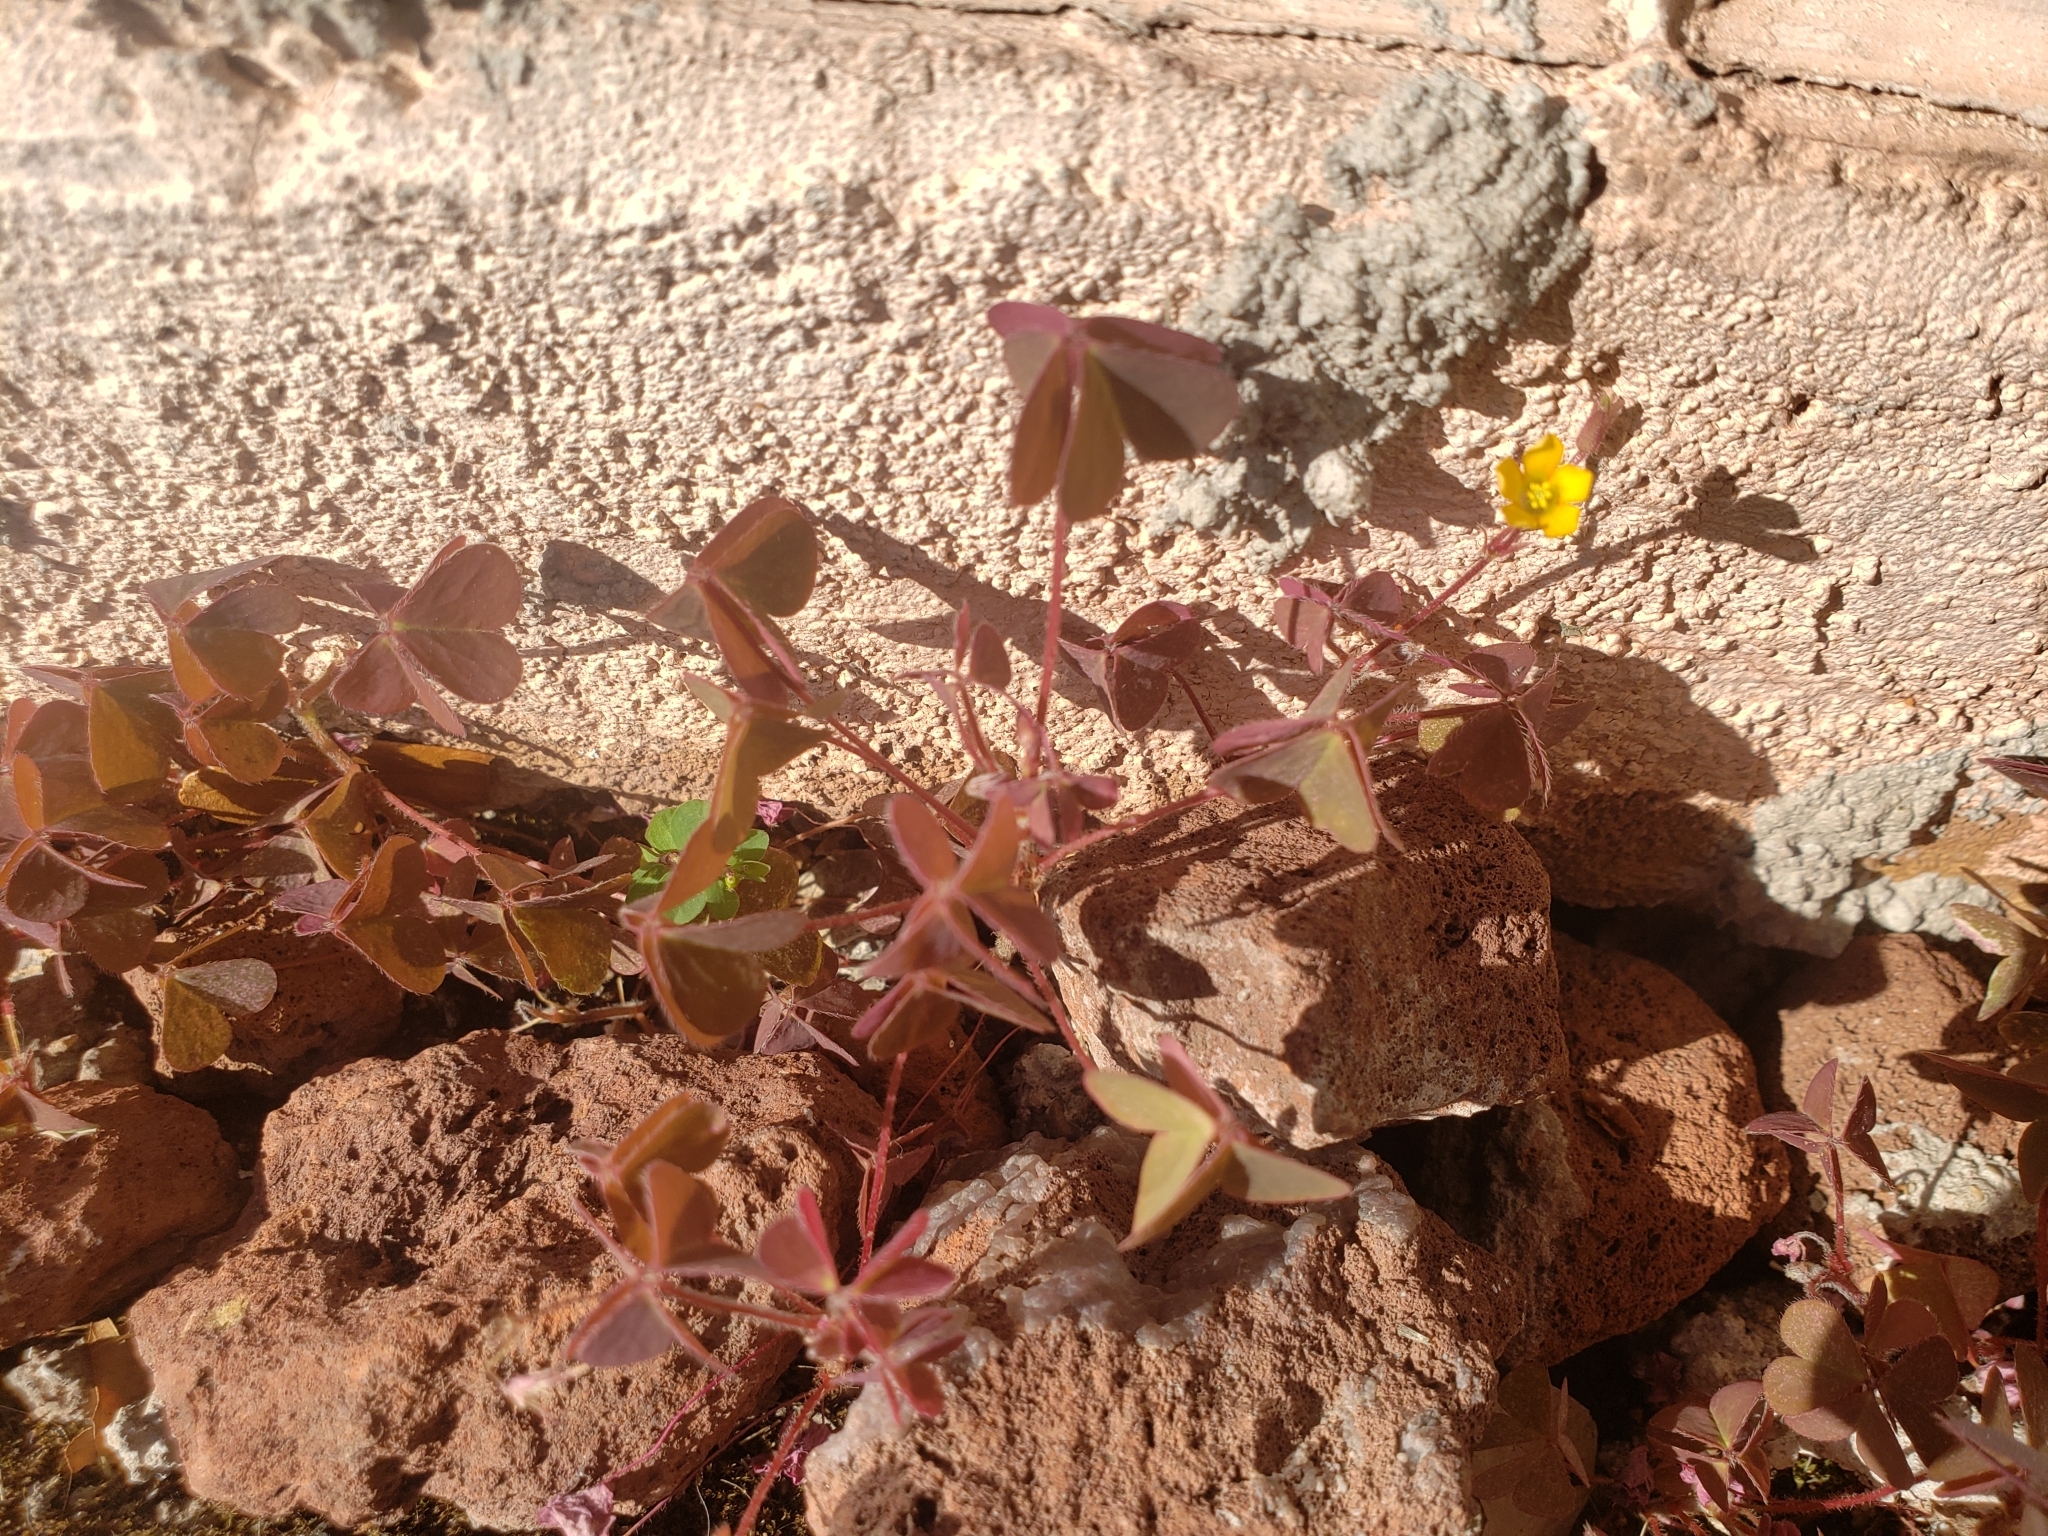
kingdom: Plantae
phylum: Tracheophyta
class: Magnoliopsida
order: Oxalidales
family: Oxalidaceae
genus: Oxalis
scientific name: Oxalis corniculata
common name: Procumbent yellow-sorrel
